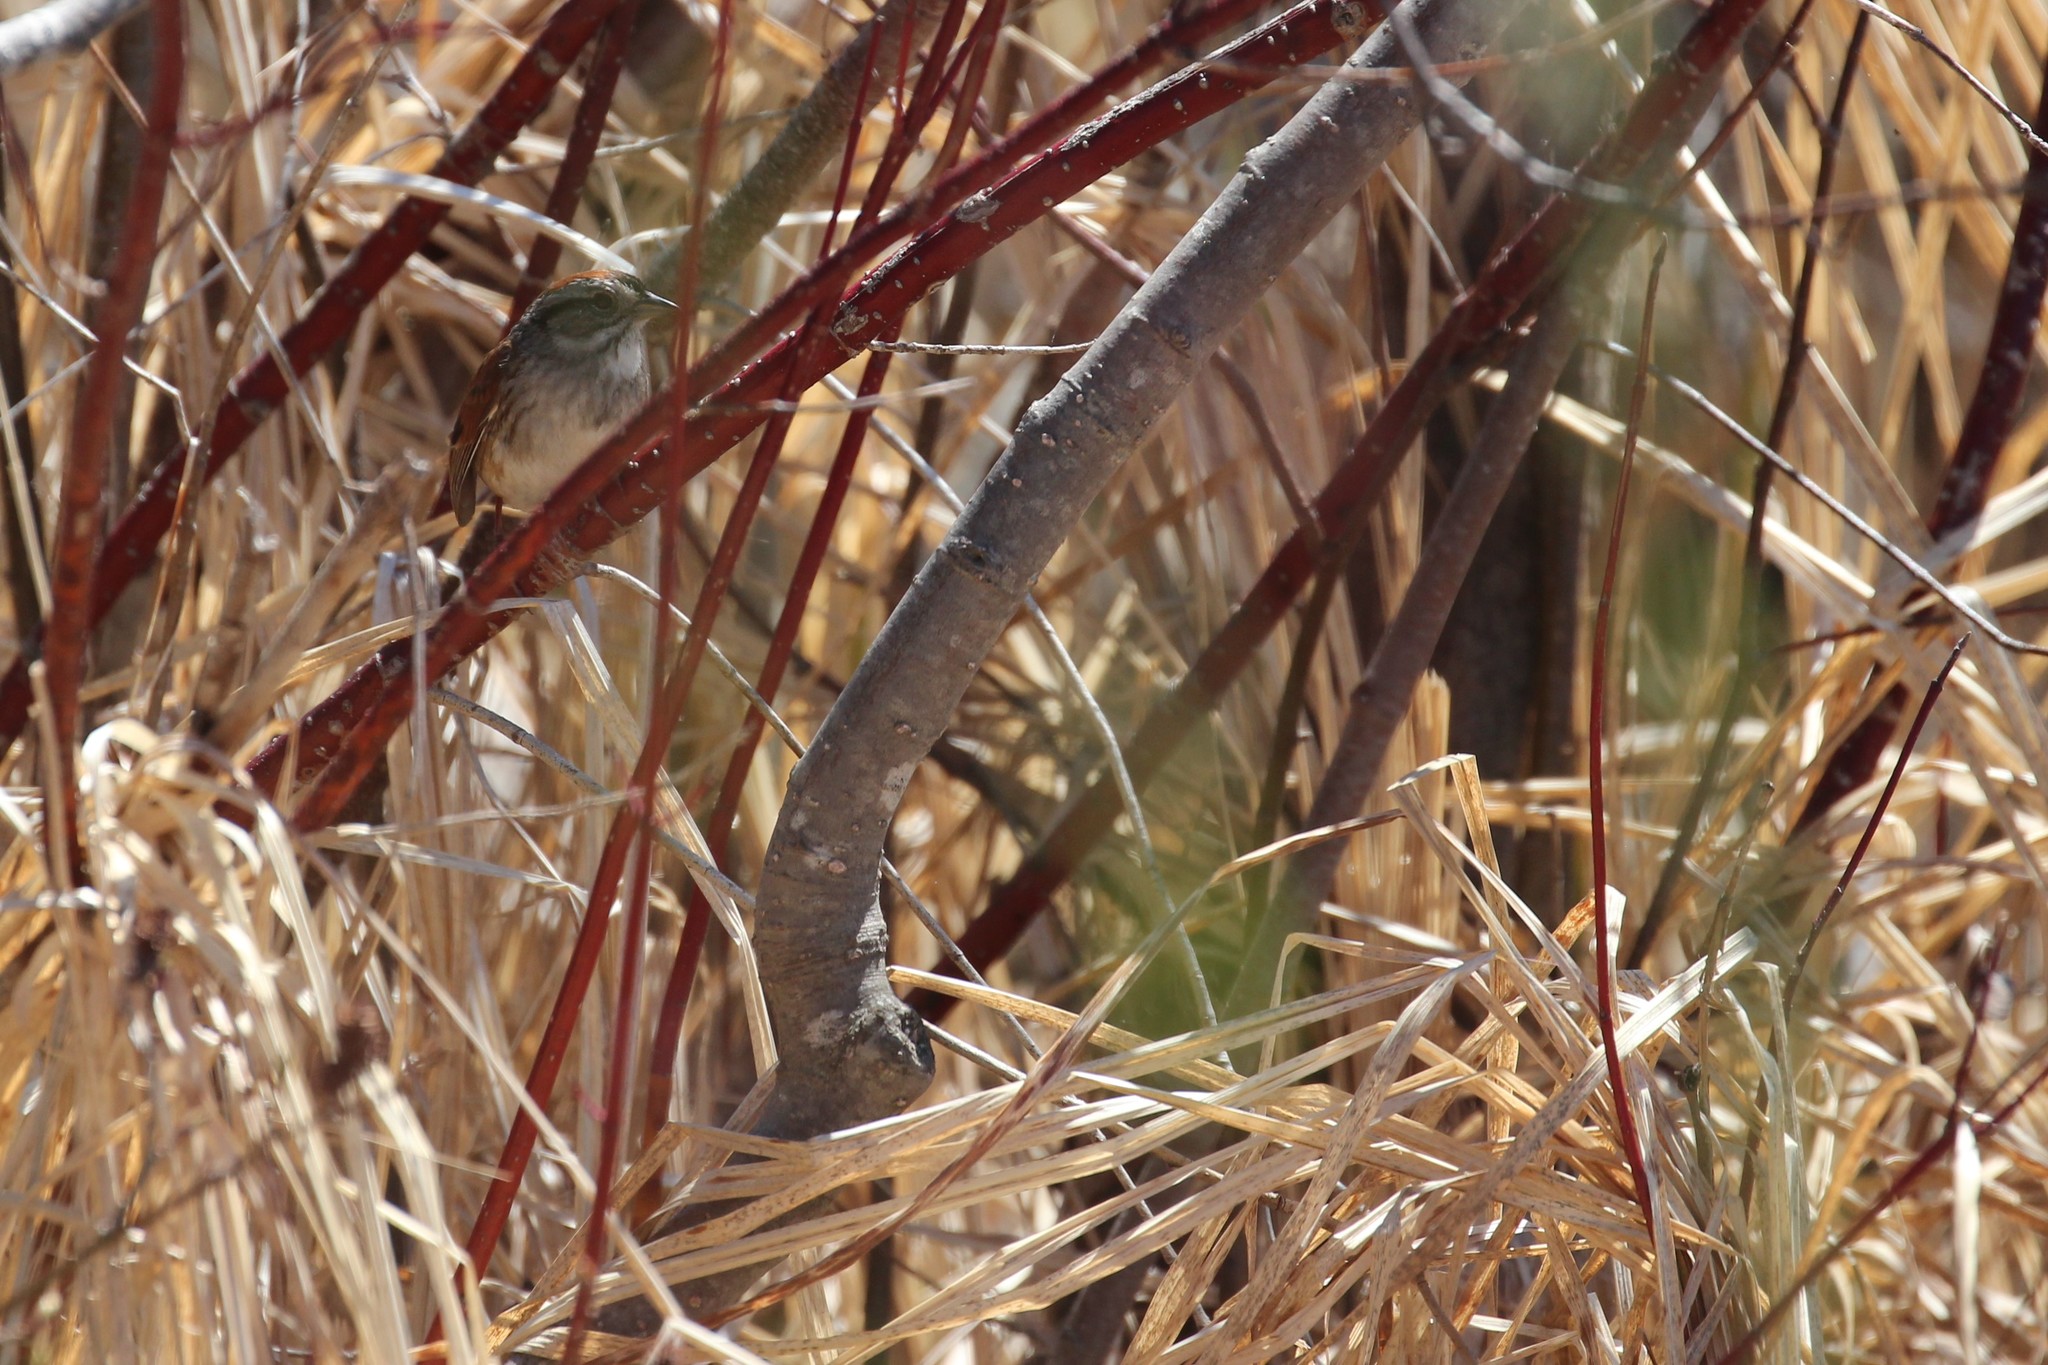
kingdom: Animalia
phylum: Chordata
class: Aves
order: Passeriformes
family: Passerellidae
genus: Melospiza
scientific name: Melospiza georgiana
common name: Swamp sparrow
